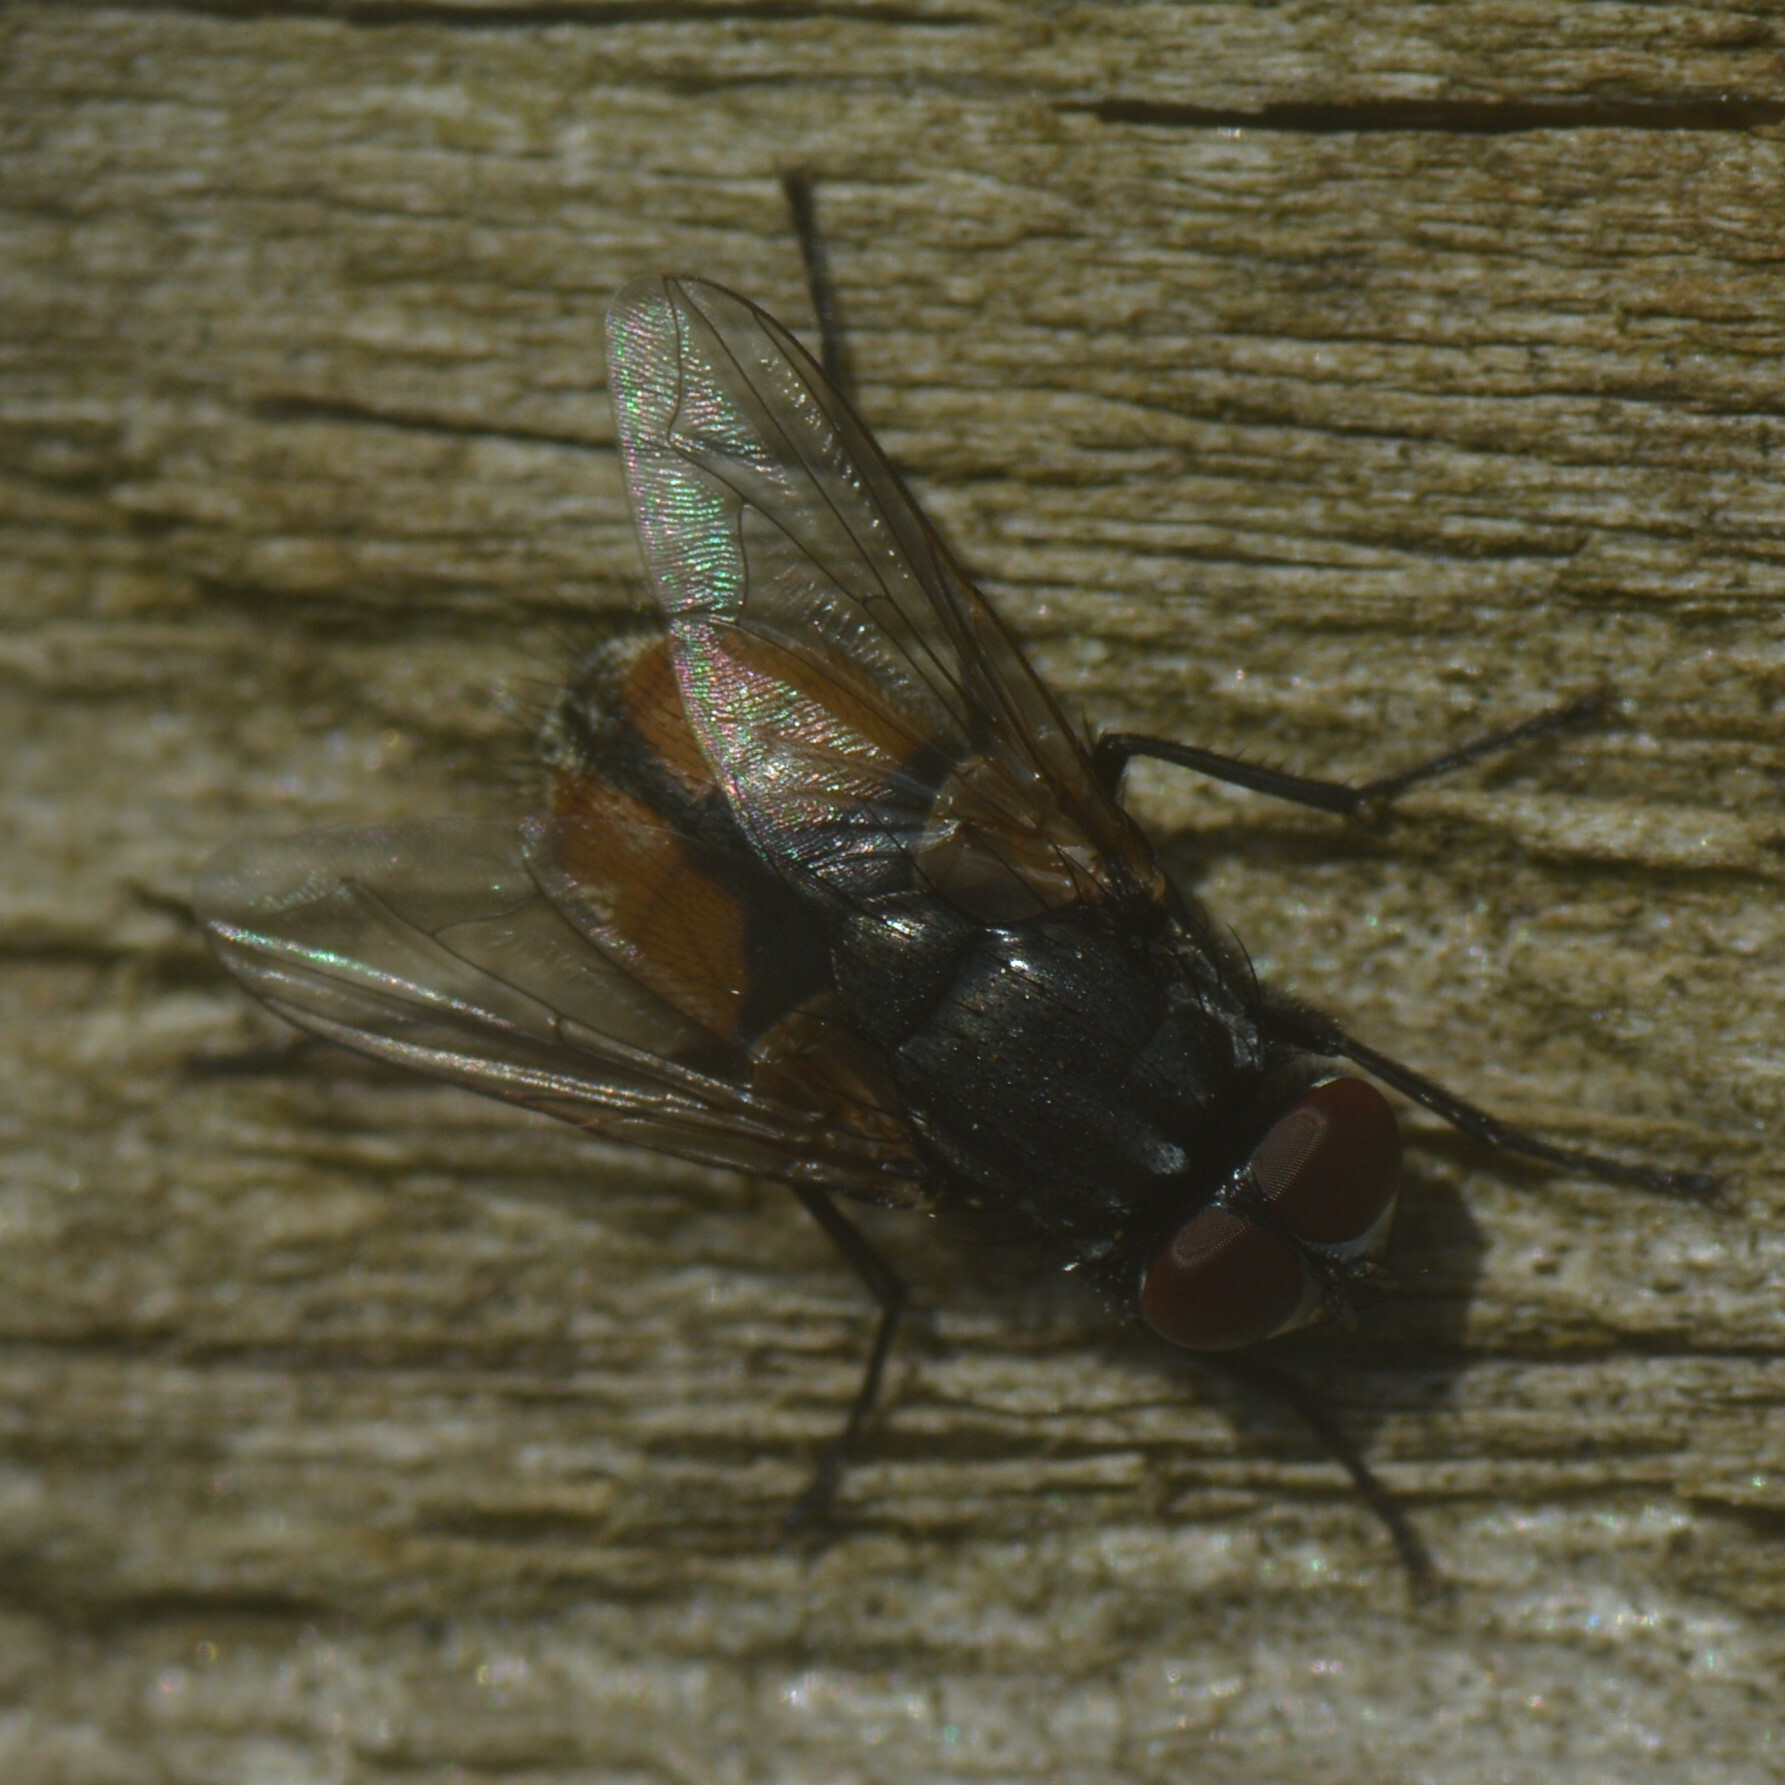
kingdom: Animalia
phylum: Arthropoda
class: Insecta
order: Diptera
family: Muscidae
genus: Musca
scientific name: Musca autumnalis
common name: Face fly
